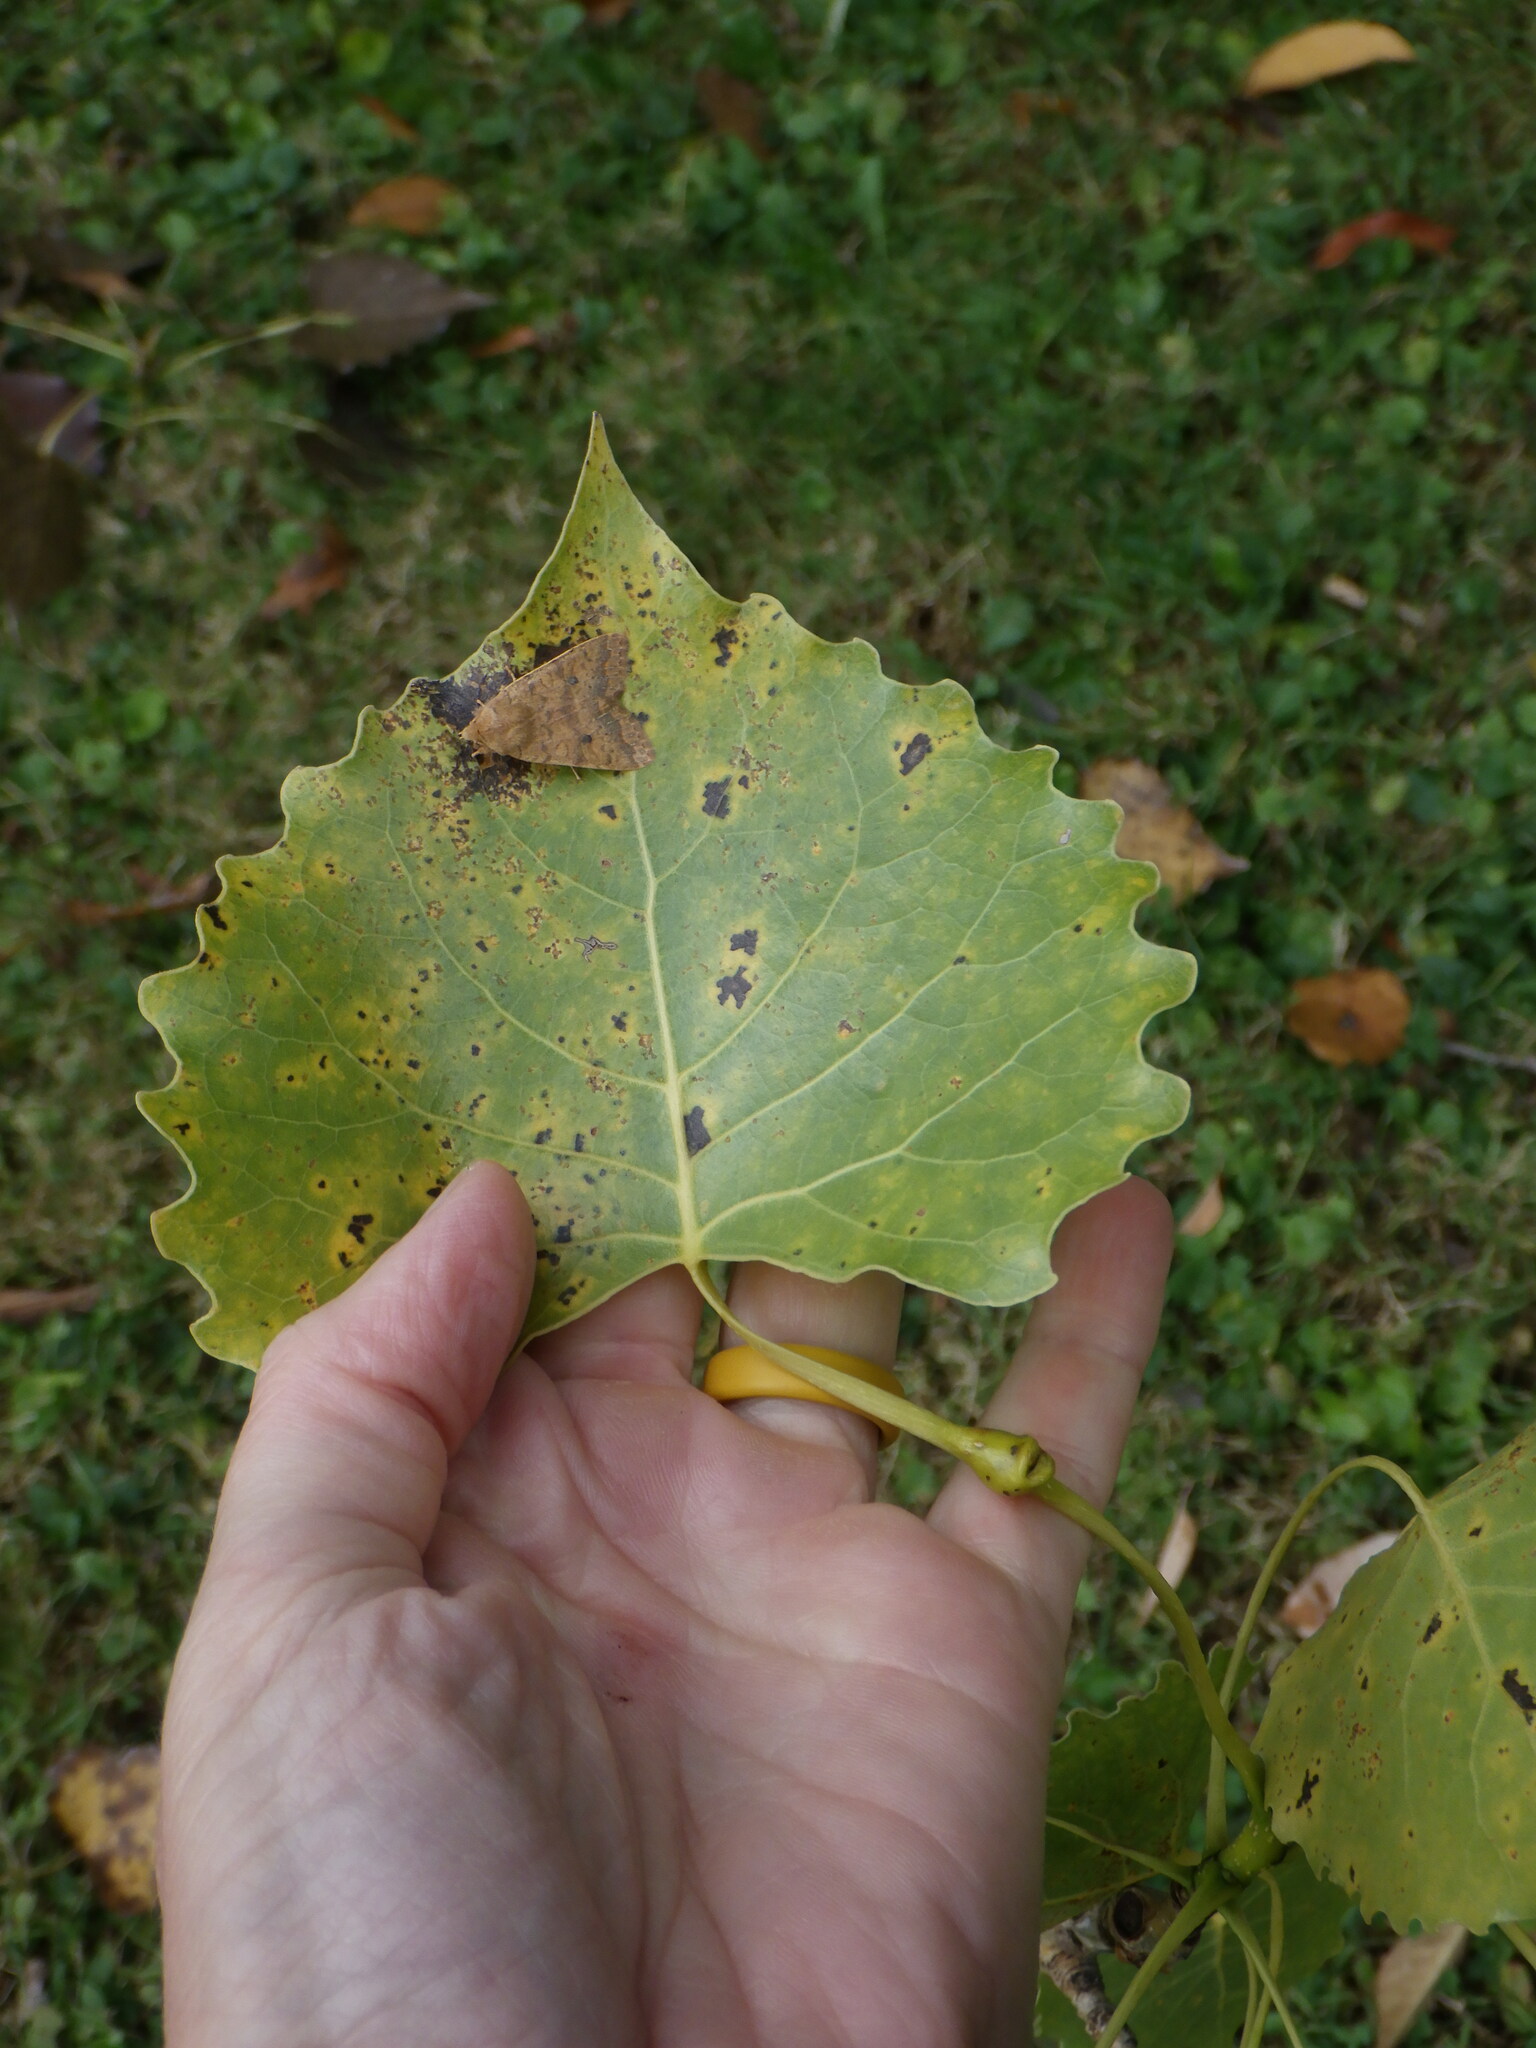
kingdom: Plantae
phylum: Tracheophyta
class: Magnoliopsida
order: Malpighiales
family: Salicaceae
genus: Populus
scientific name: Populus deltoides
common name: Eastern cottonwood
